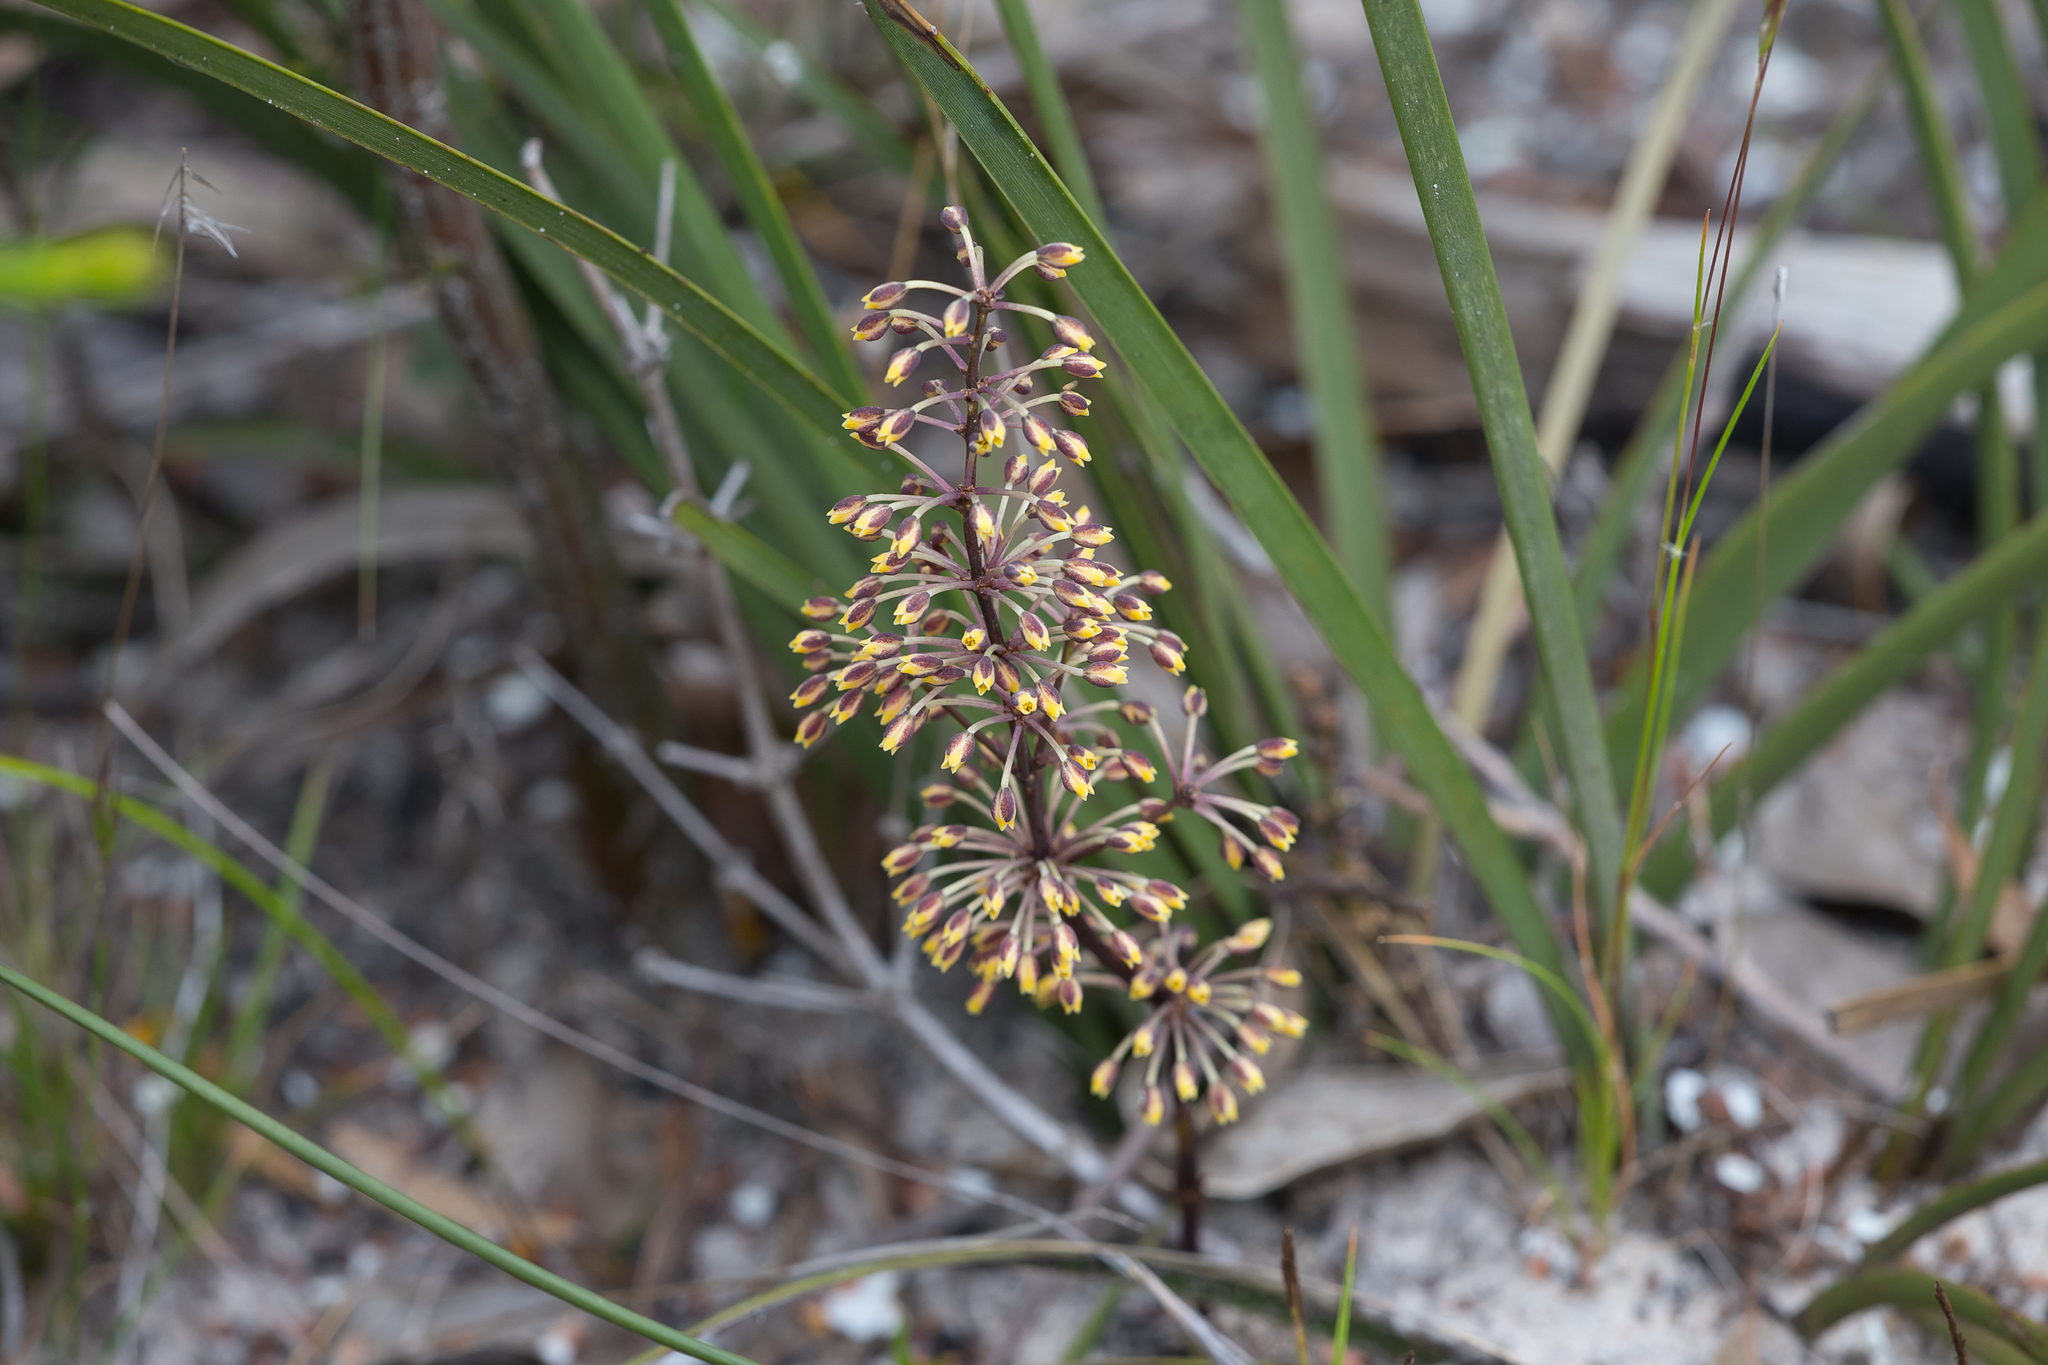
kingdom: Plantae
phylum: Tracheophyta
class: Liliopsida
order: Asparagales
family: Asparagaceae
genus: Lomandra
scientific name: Lomandra multiflora
